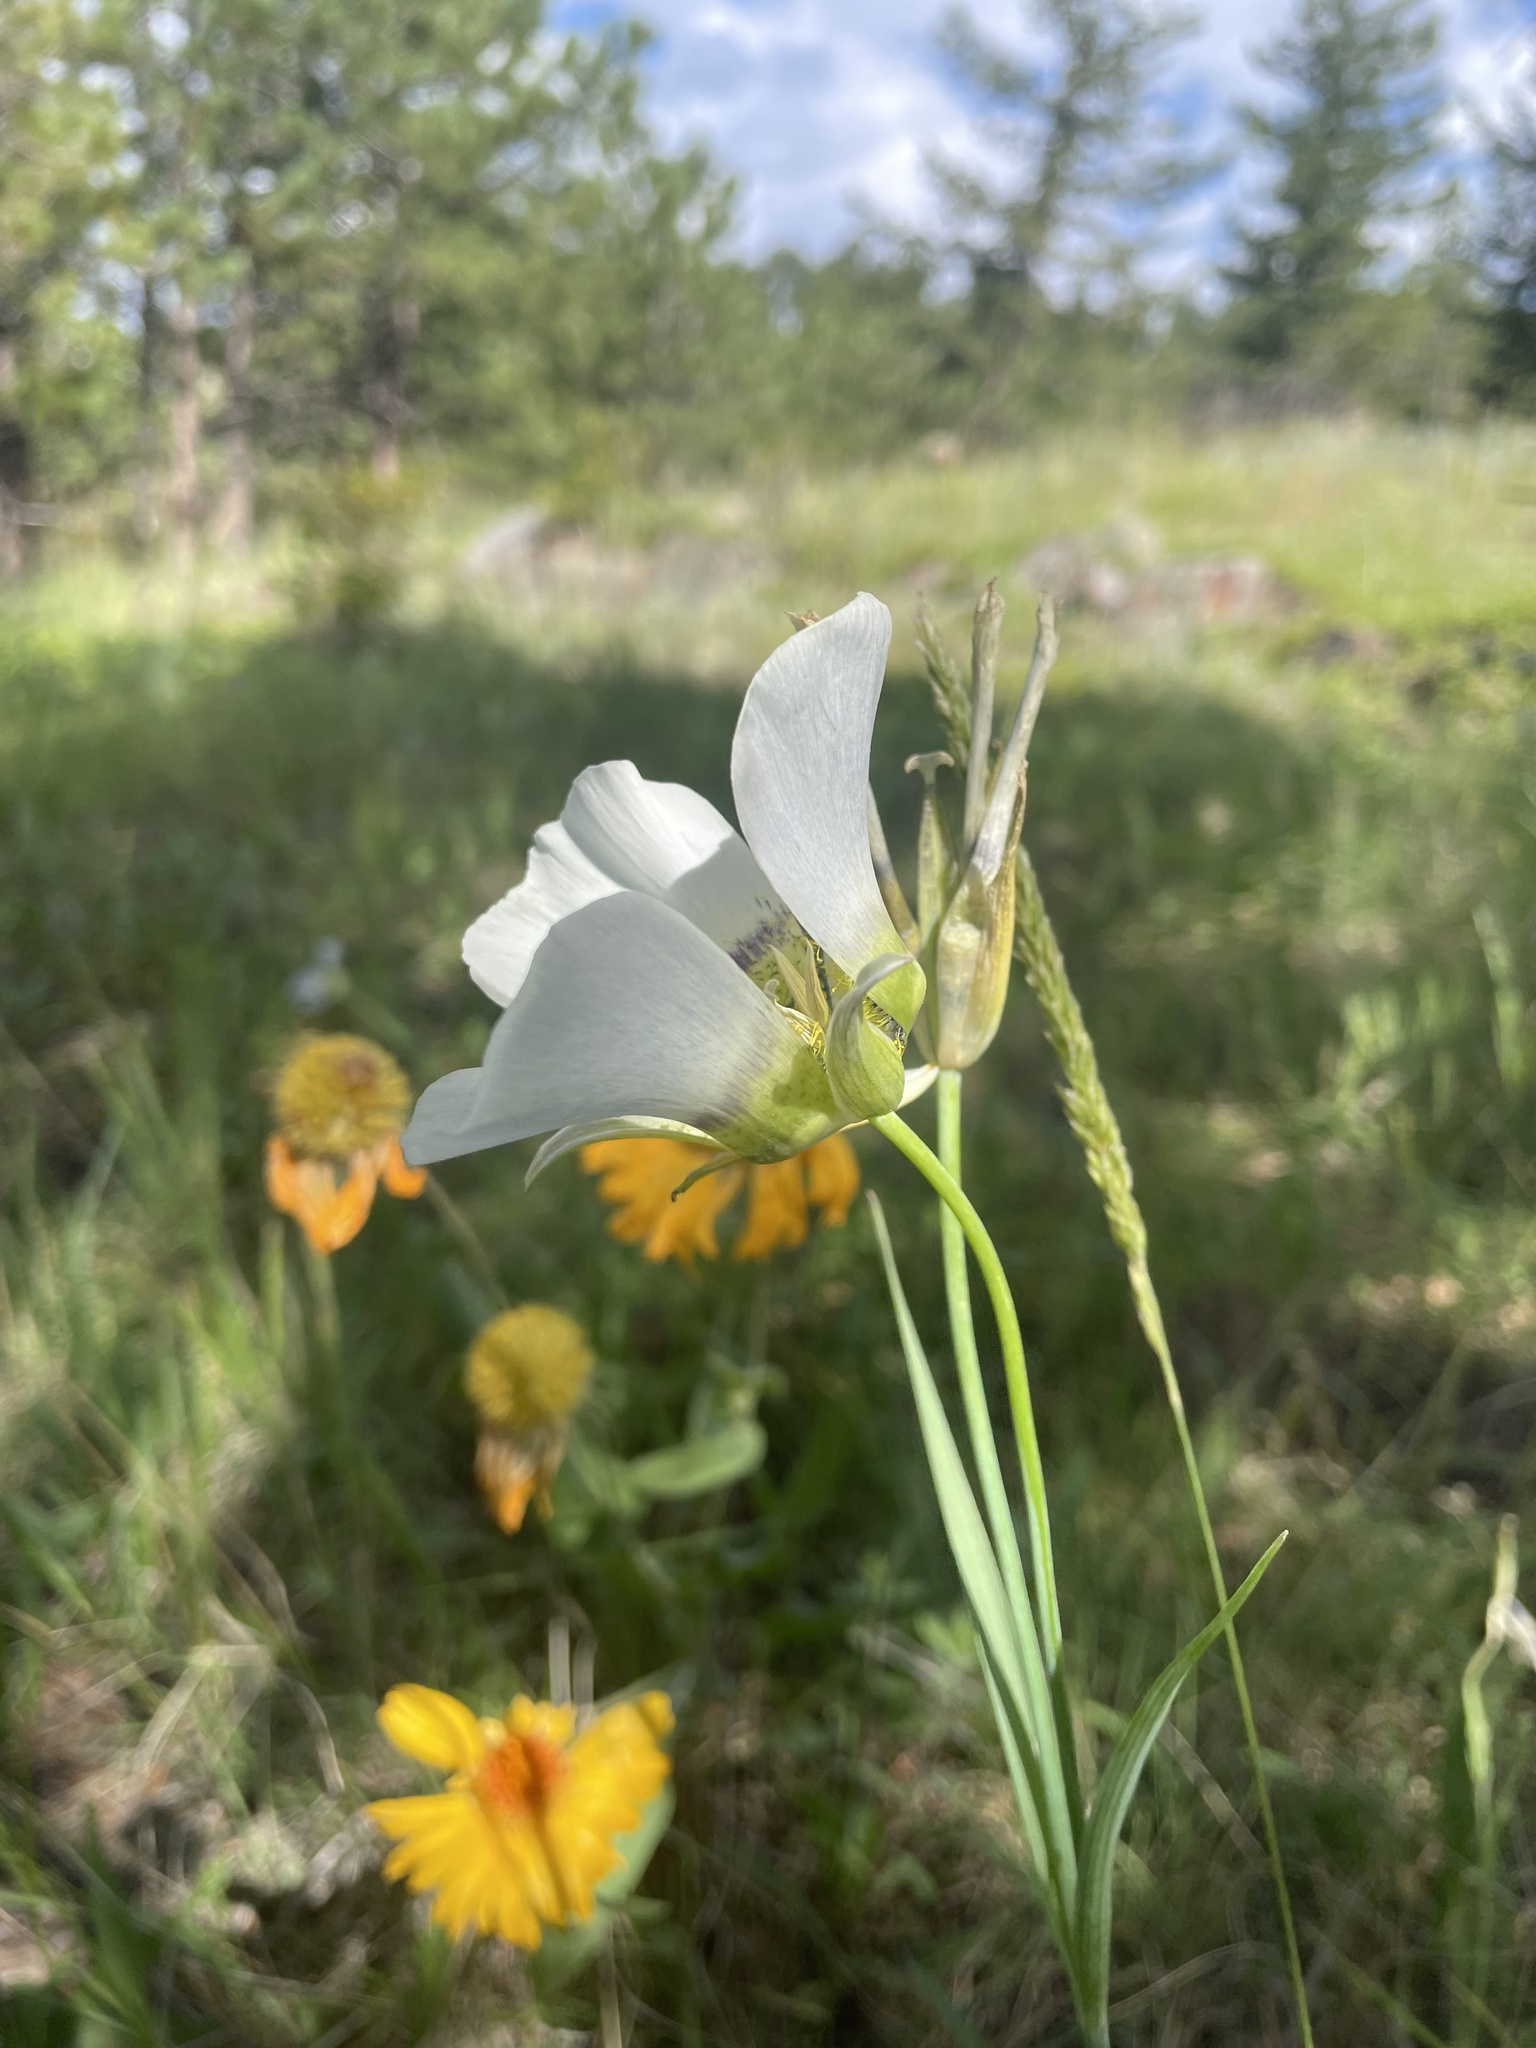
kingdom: Plantae
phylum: Tracheophyta
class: Liliopsida
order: Liliales
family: Liliaceae
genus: Calochortus
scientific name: Calochortus gunnisonii
